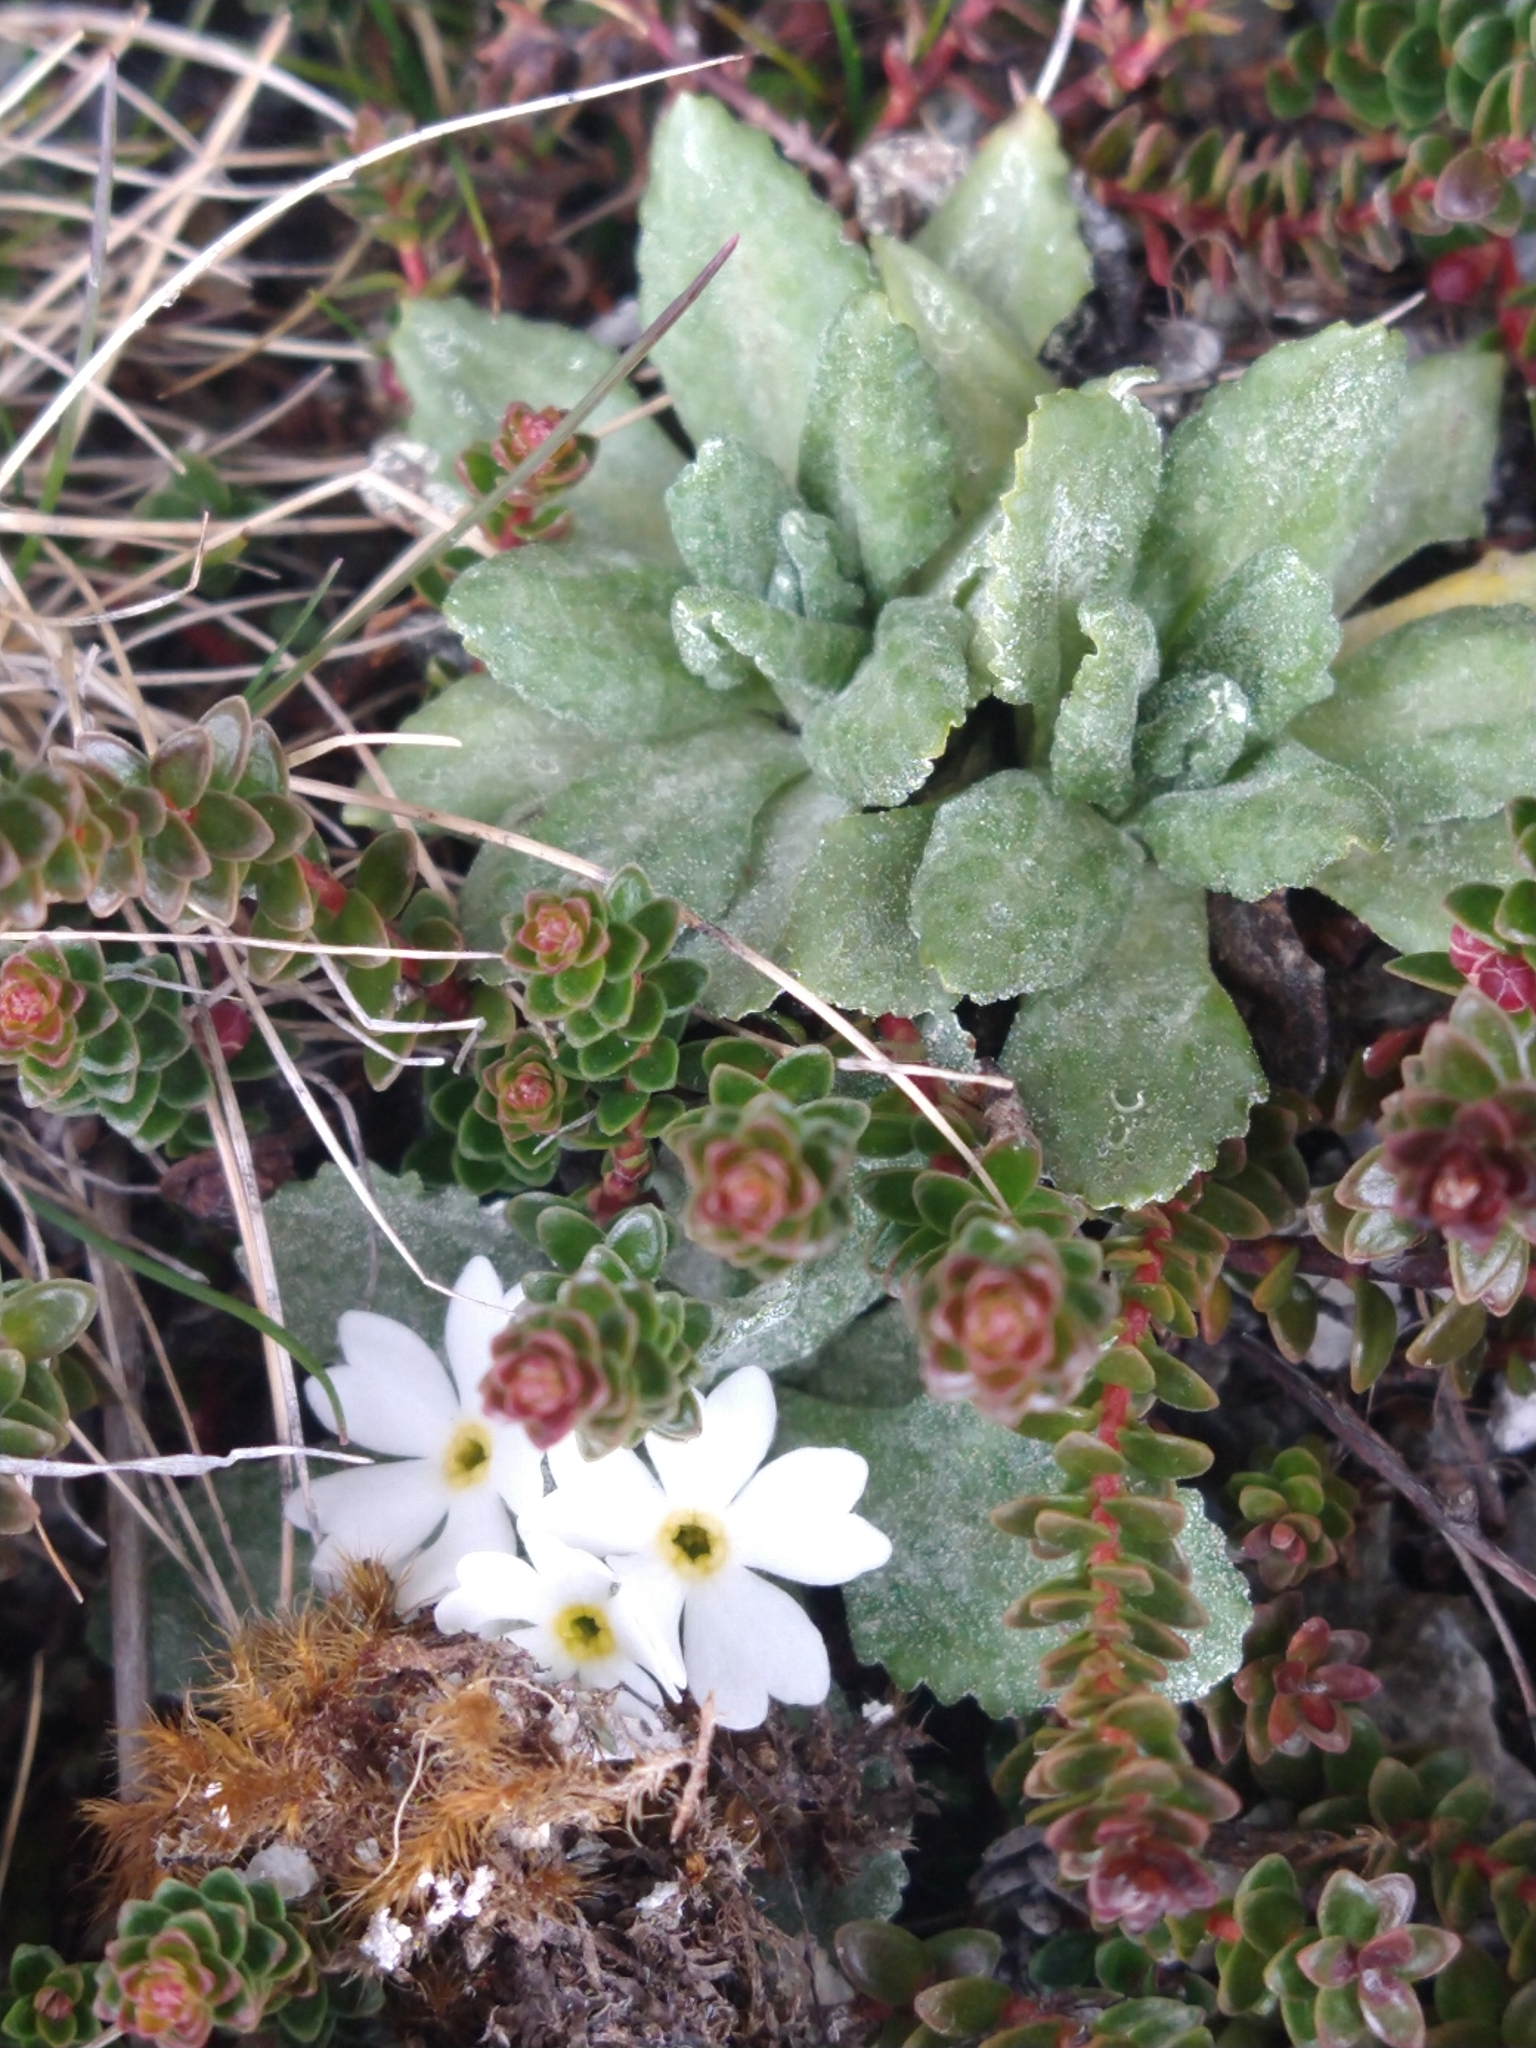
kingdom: Plantae
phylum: Tracheophyta
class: Magnoliopsida
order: Ericales
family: Primulaceae
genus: Primula
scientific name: Primula magellanica
